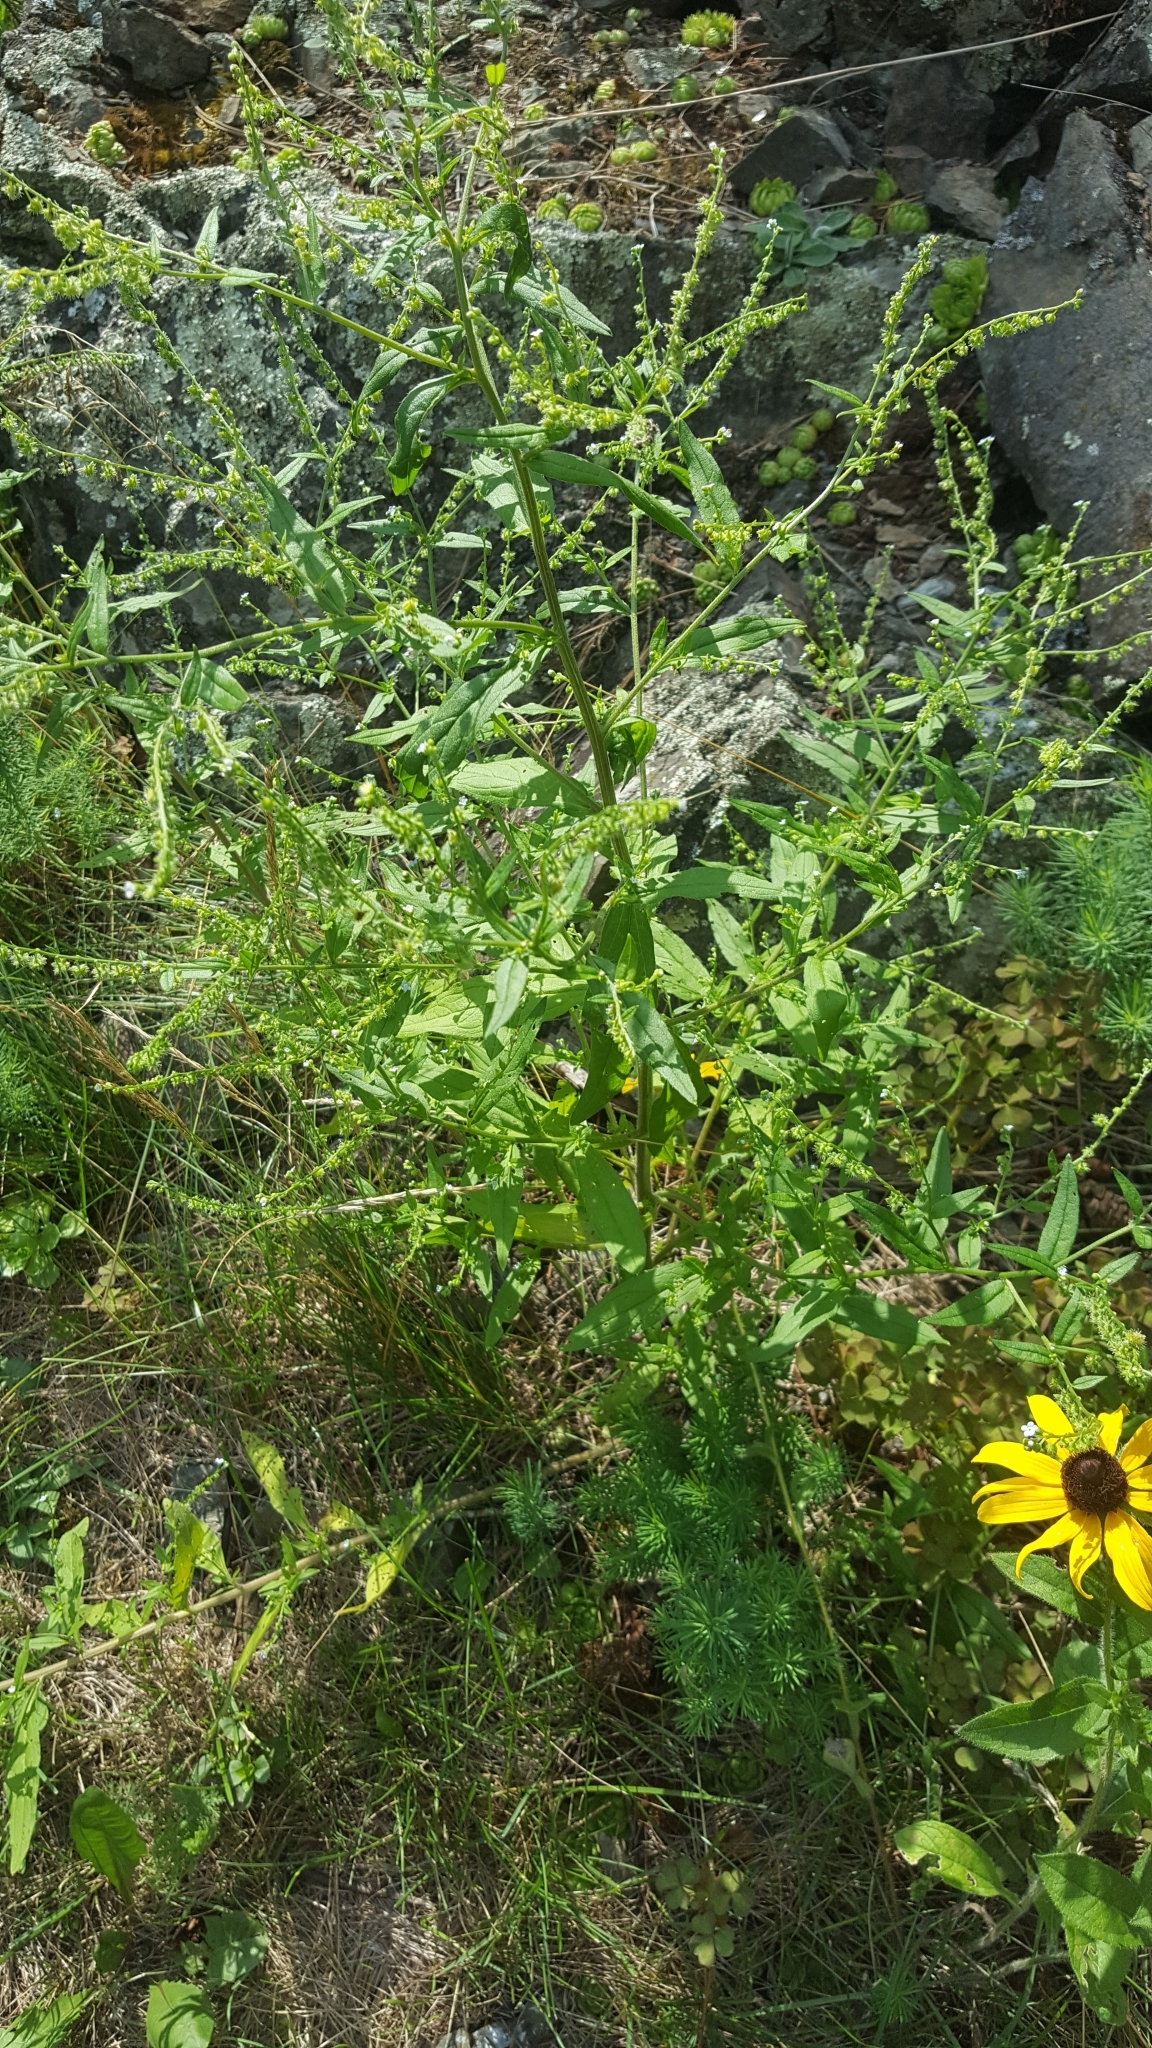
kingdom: Plantae
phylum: Tracheophyta
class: Magnoliopsida
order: Boraginales
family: Boraginaceae
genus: Hackelia
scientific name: Hackelia deflexa
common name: Nodding stickseed
